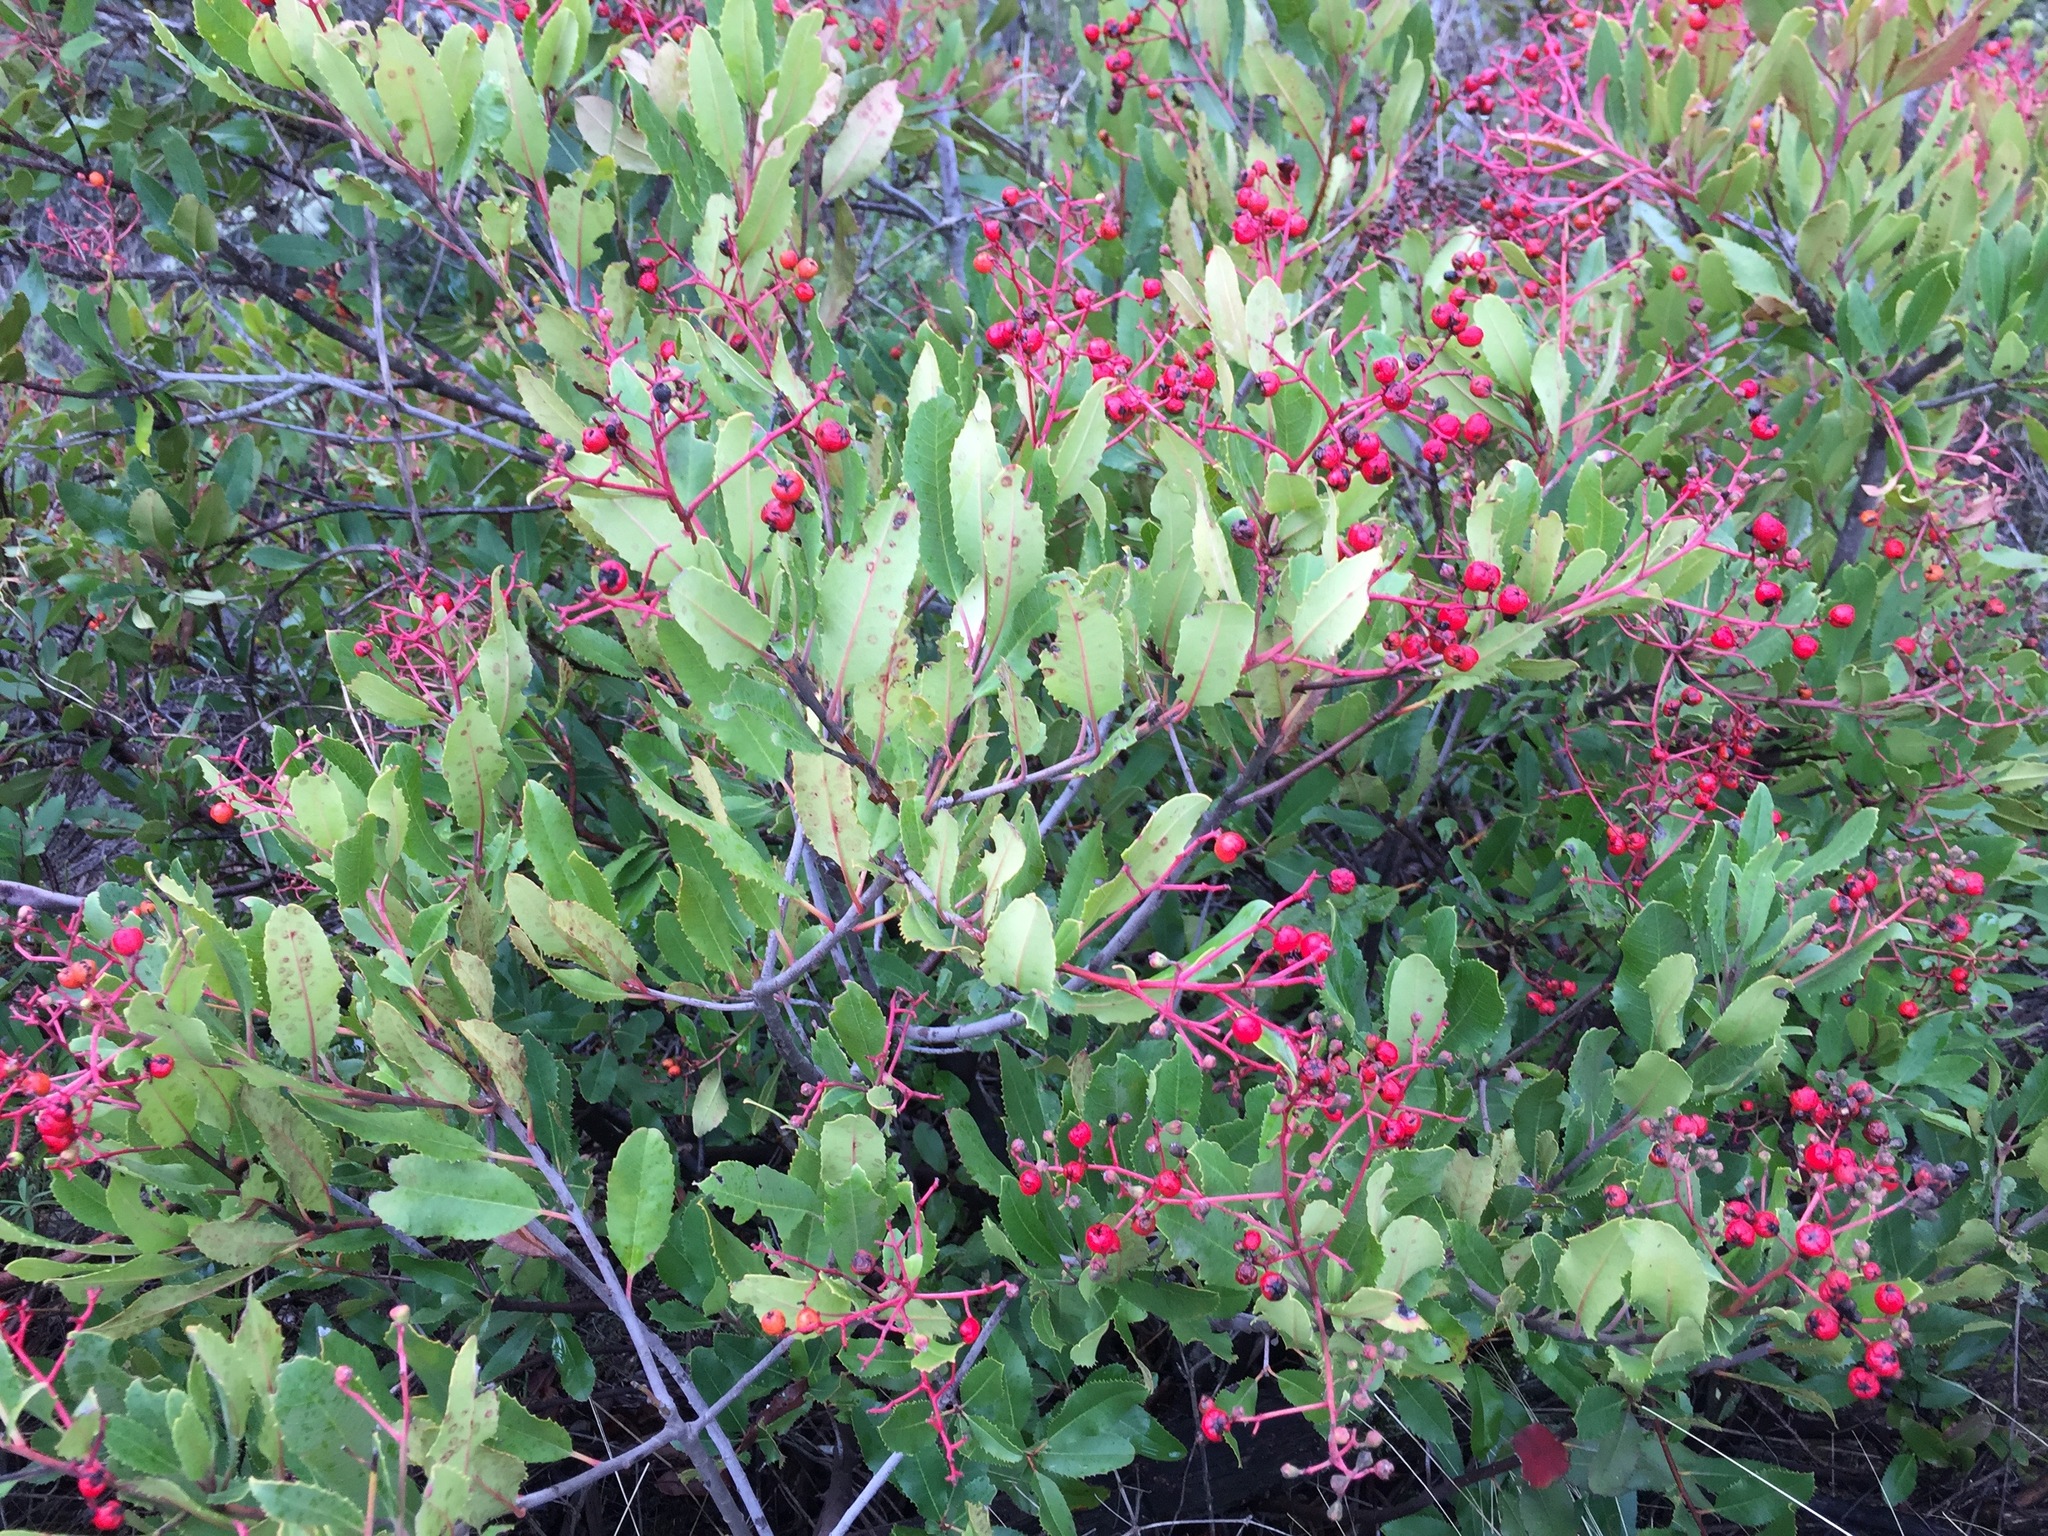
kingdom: Plantae
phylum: Tracheophyta
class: Magnoliopsida
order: Rosales
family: Rosaceae
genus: Heteromeles
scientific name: Heteromeles arbutifolia
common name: California-holly
